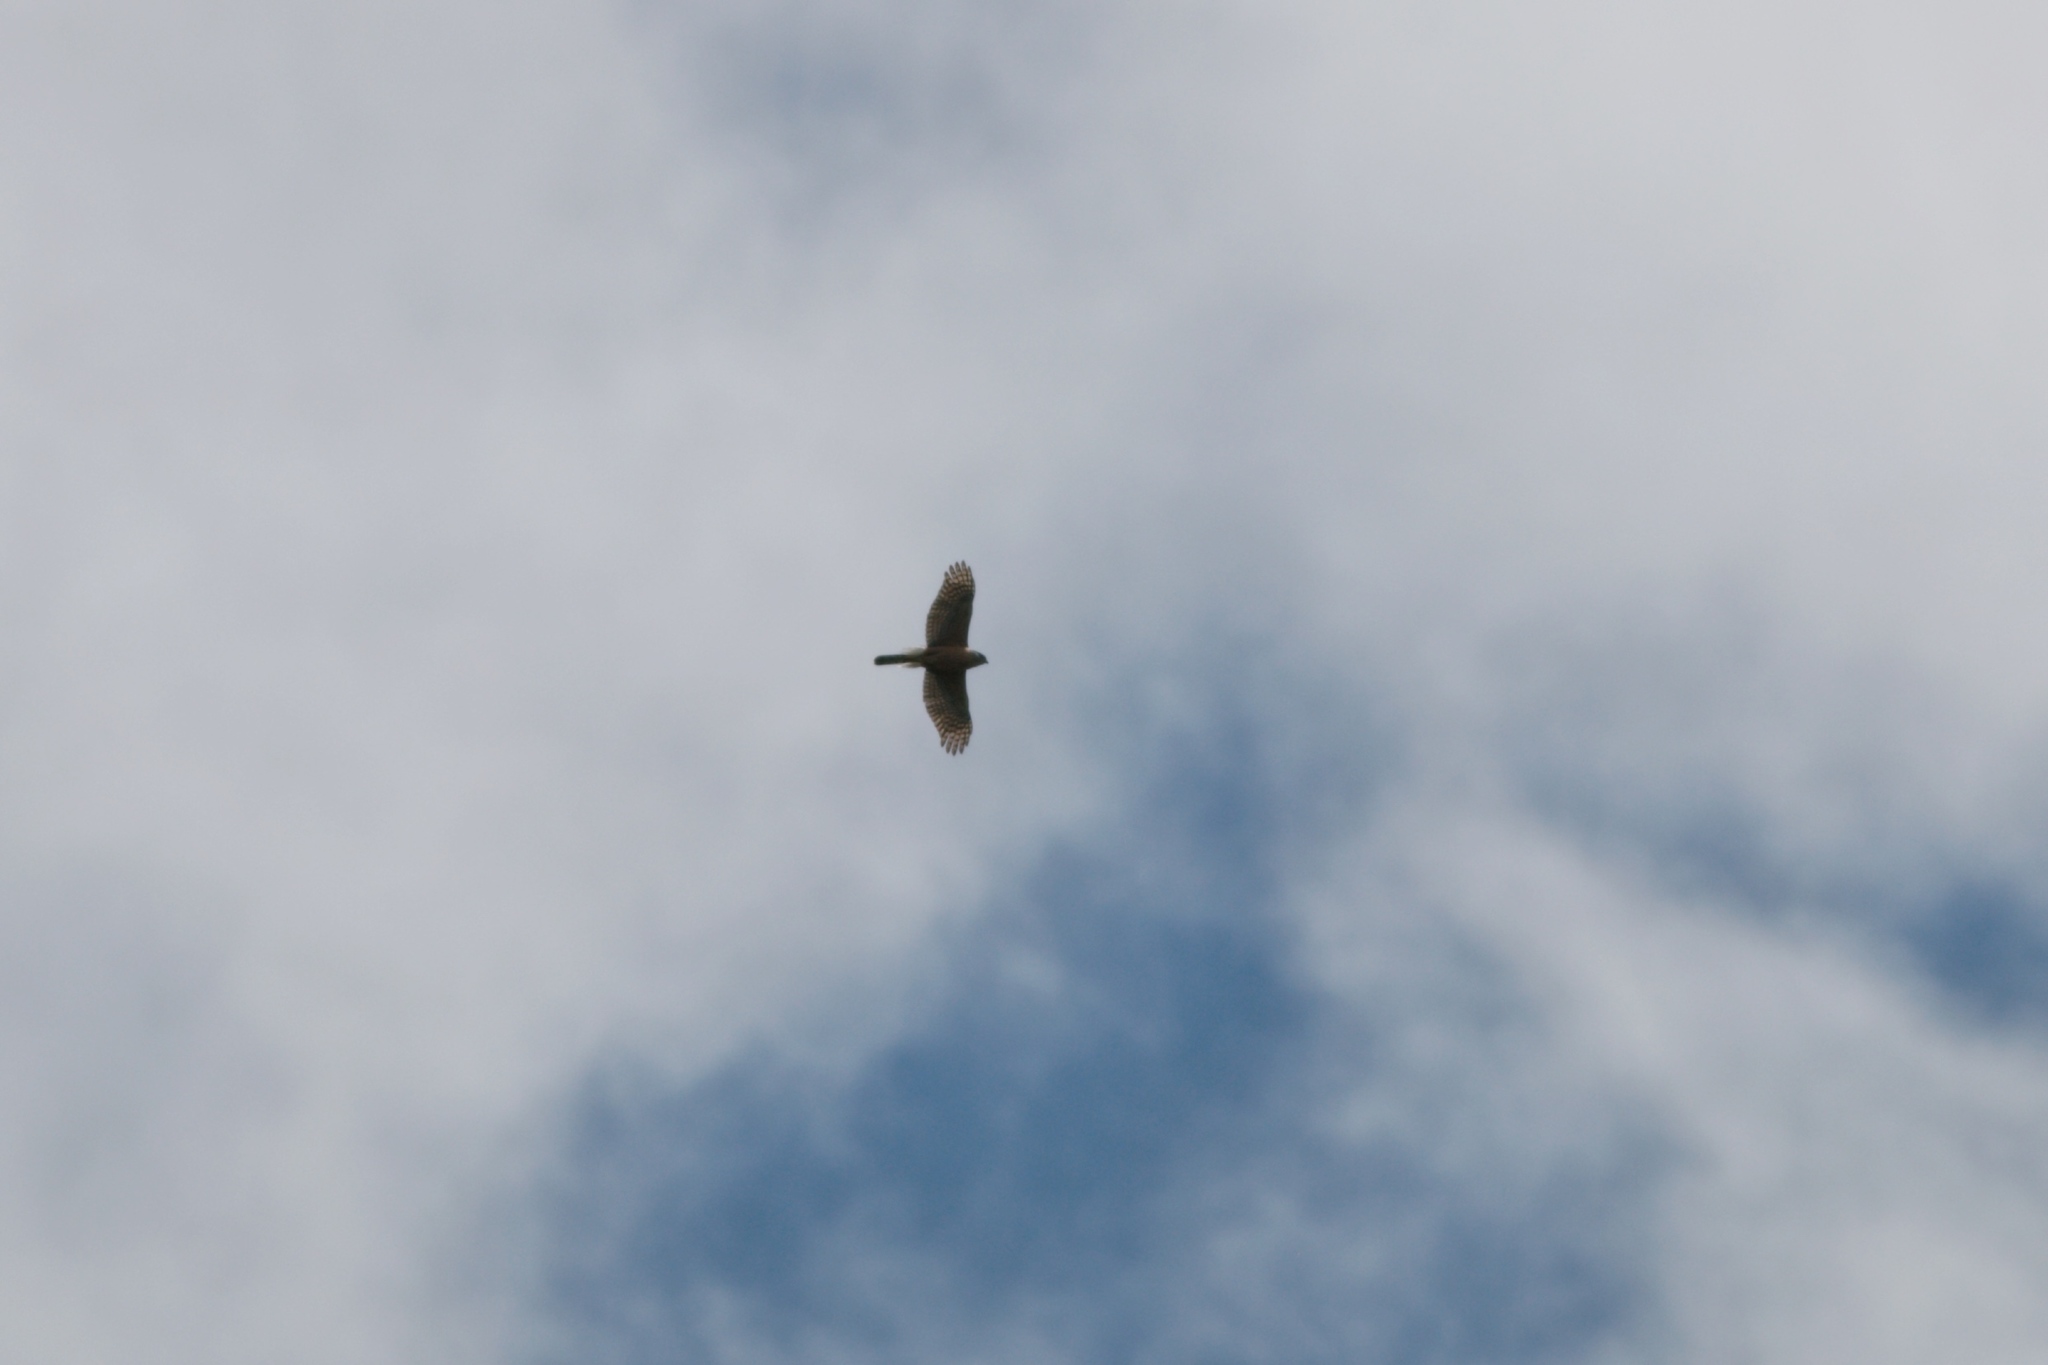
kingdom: Animalia
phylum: Chordata
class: Aves
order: Accipitriformes
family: Accipitridae
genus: Accipiter
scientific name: Accipiter cooperii
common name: Cooper's hawk
